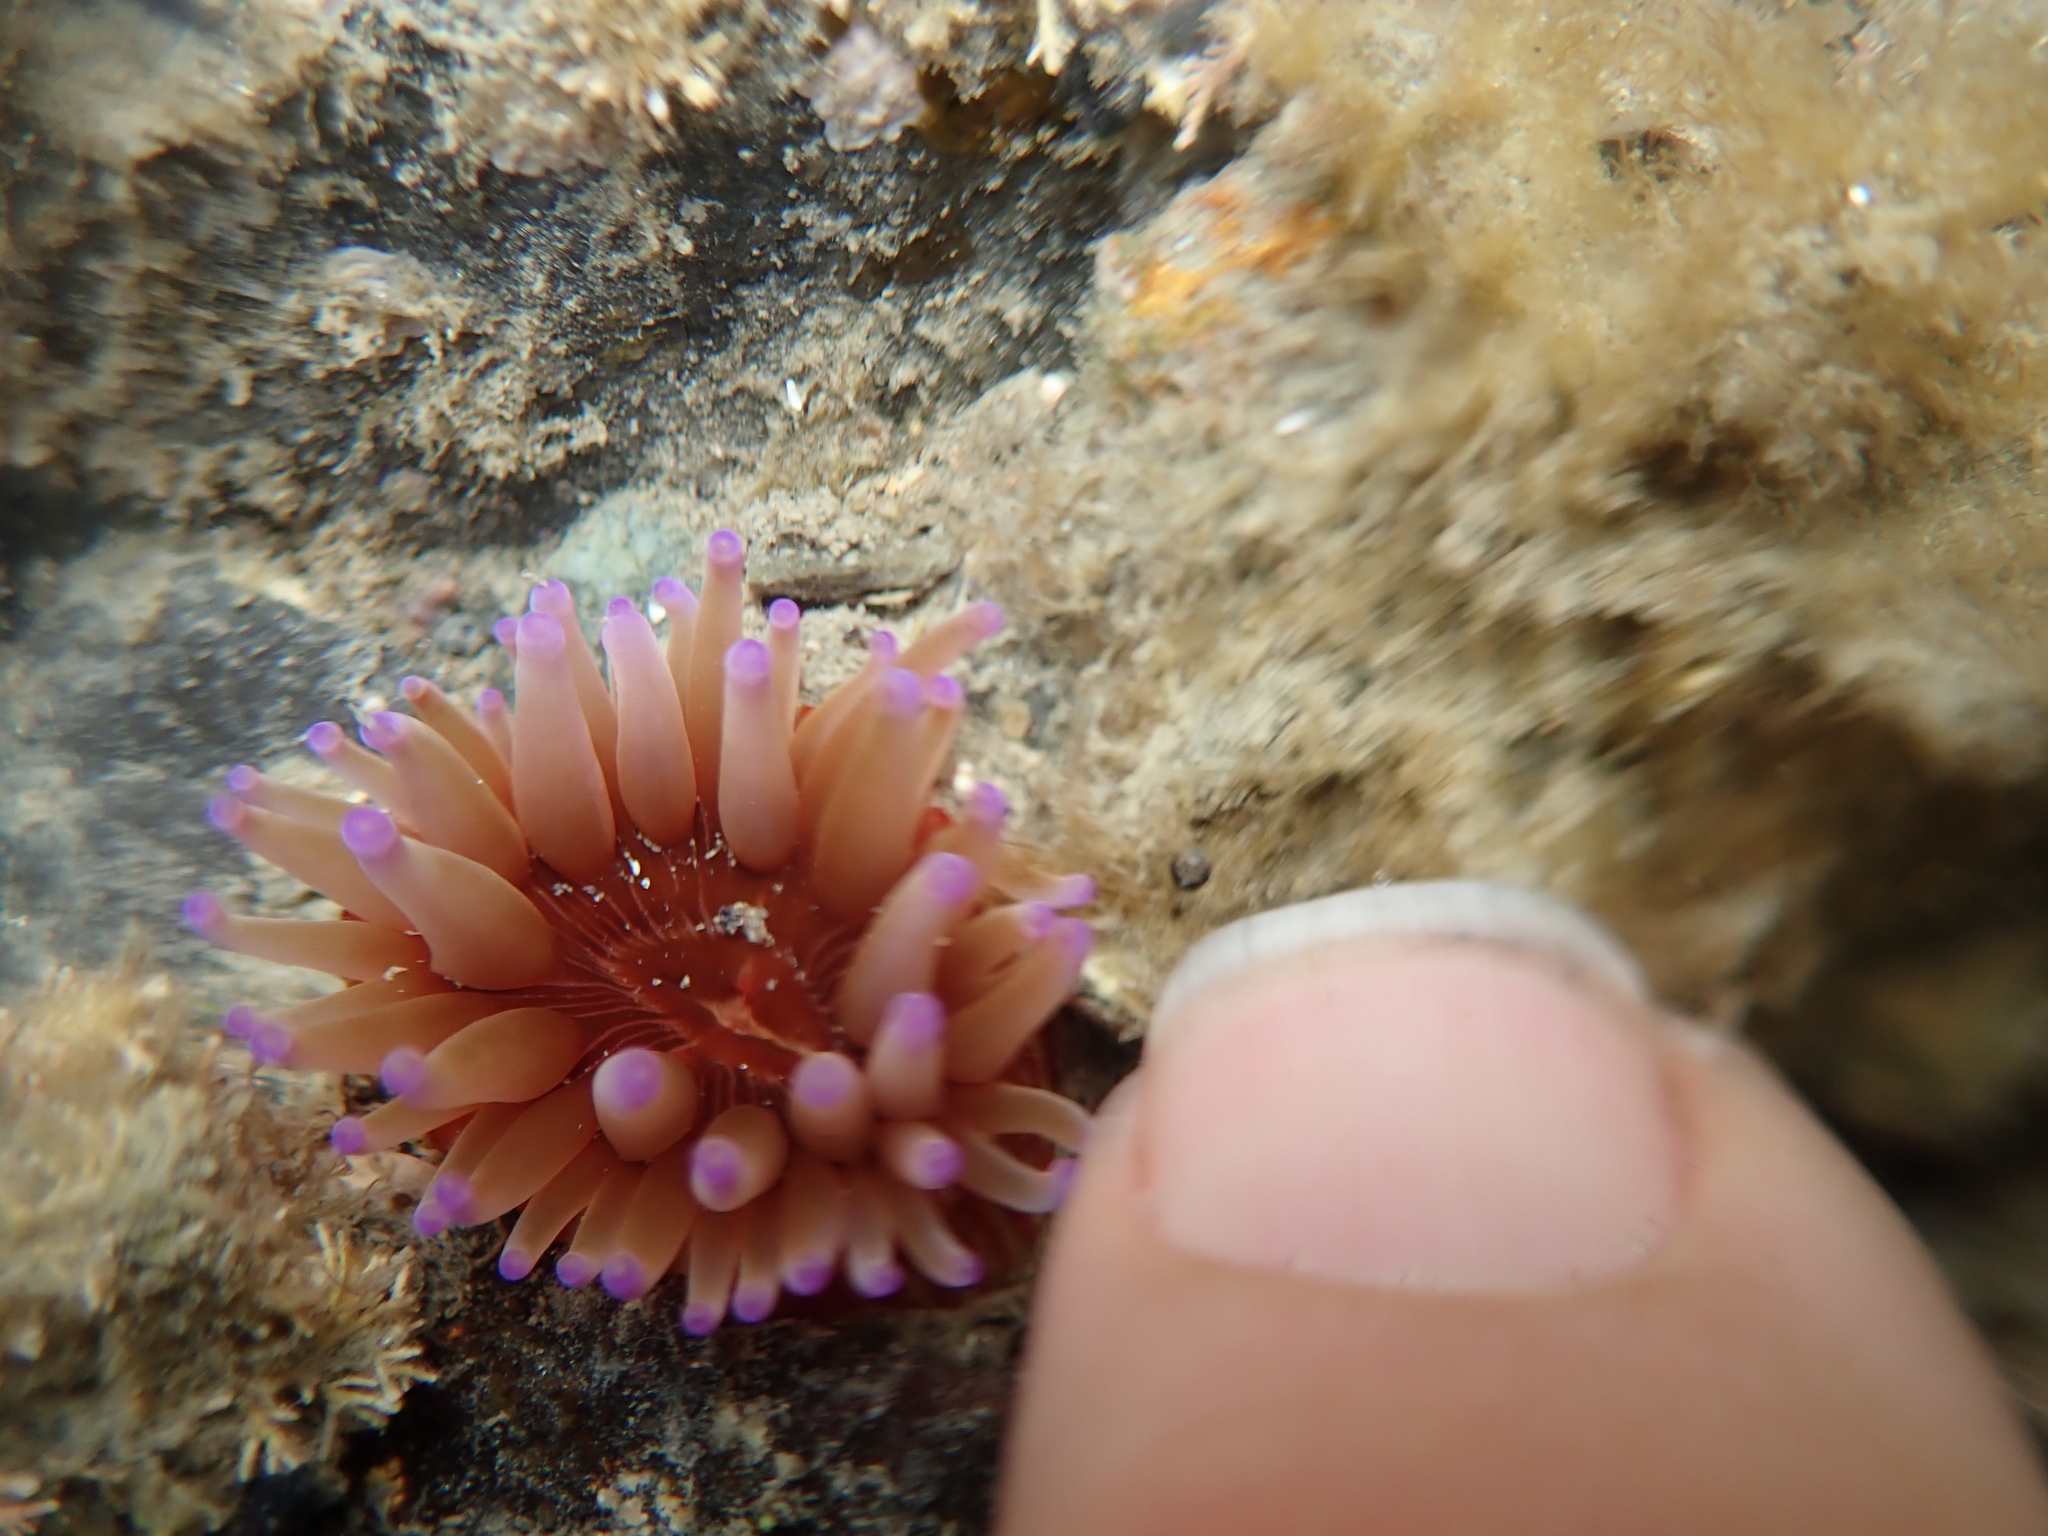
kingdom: Animalia
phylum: Cnidaria
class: Anthozoa
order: Actiniaria
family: Actiniidae
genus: Epiactis
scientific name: Epiactis thompsoni
